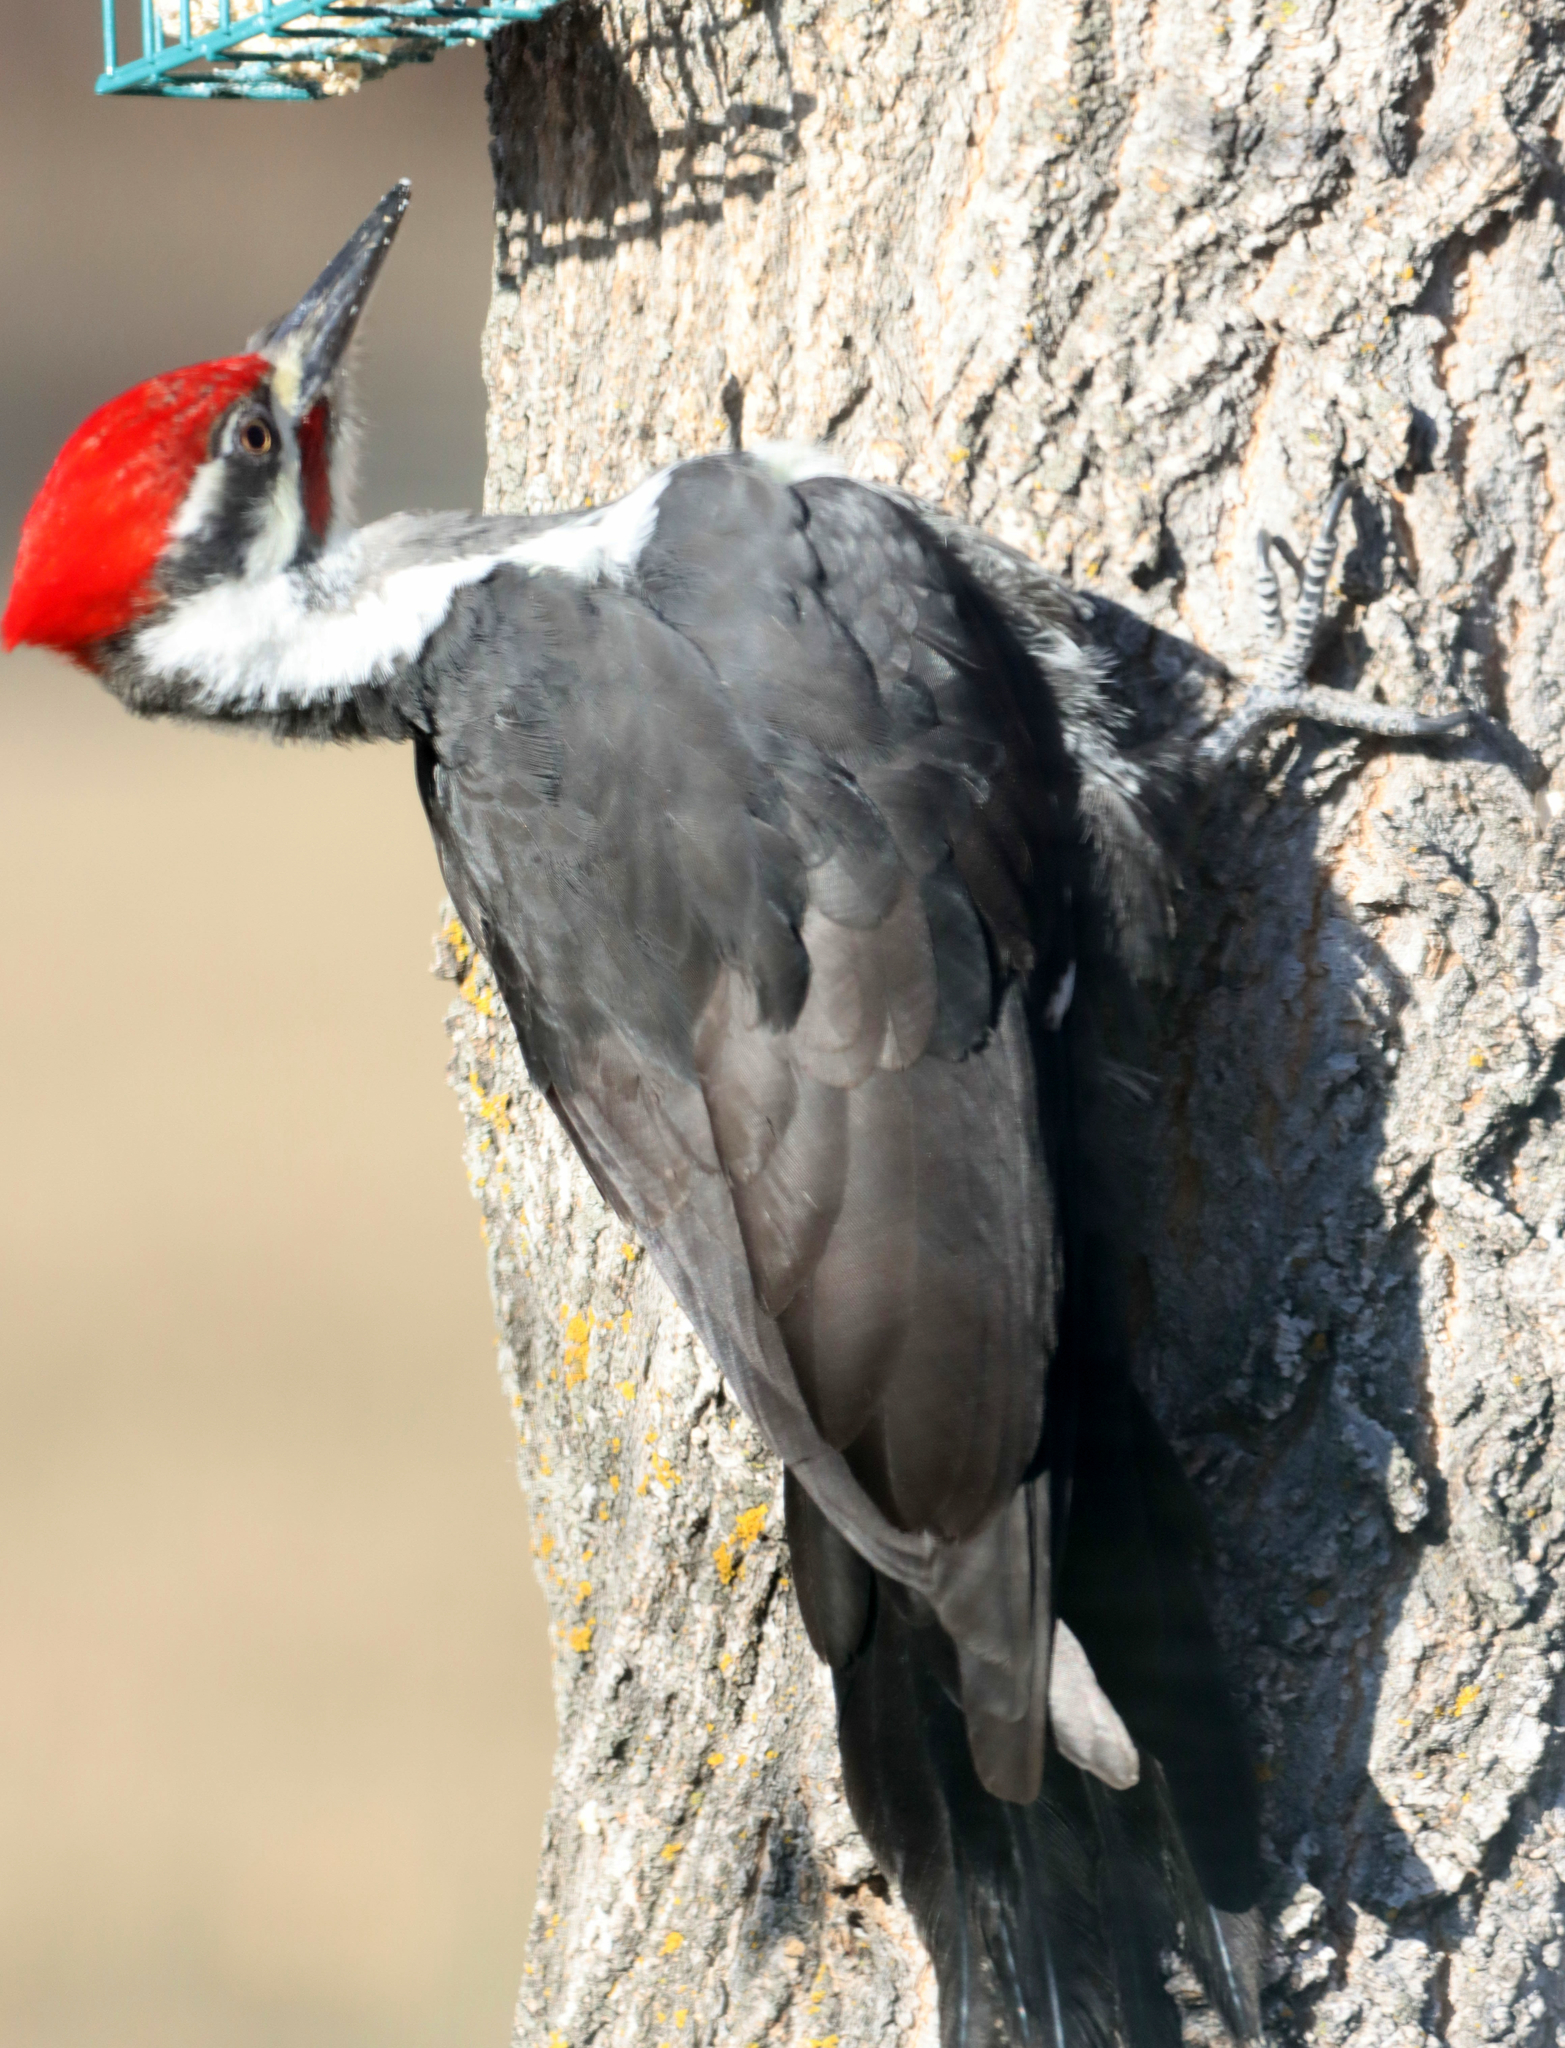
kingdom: Animalia
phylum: Chordata
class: Aves
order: Piciformes
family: Picidae
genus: Dryocopus
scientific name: Dryocopus pileatus
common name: Pileated woodpecker
